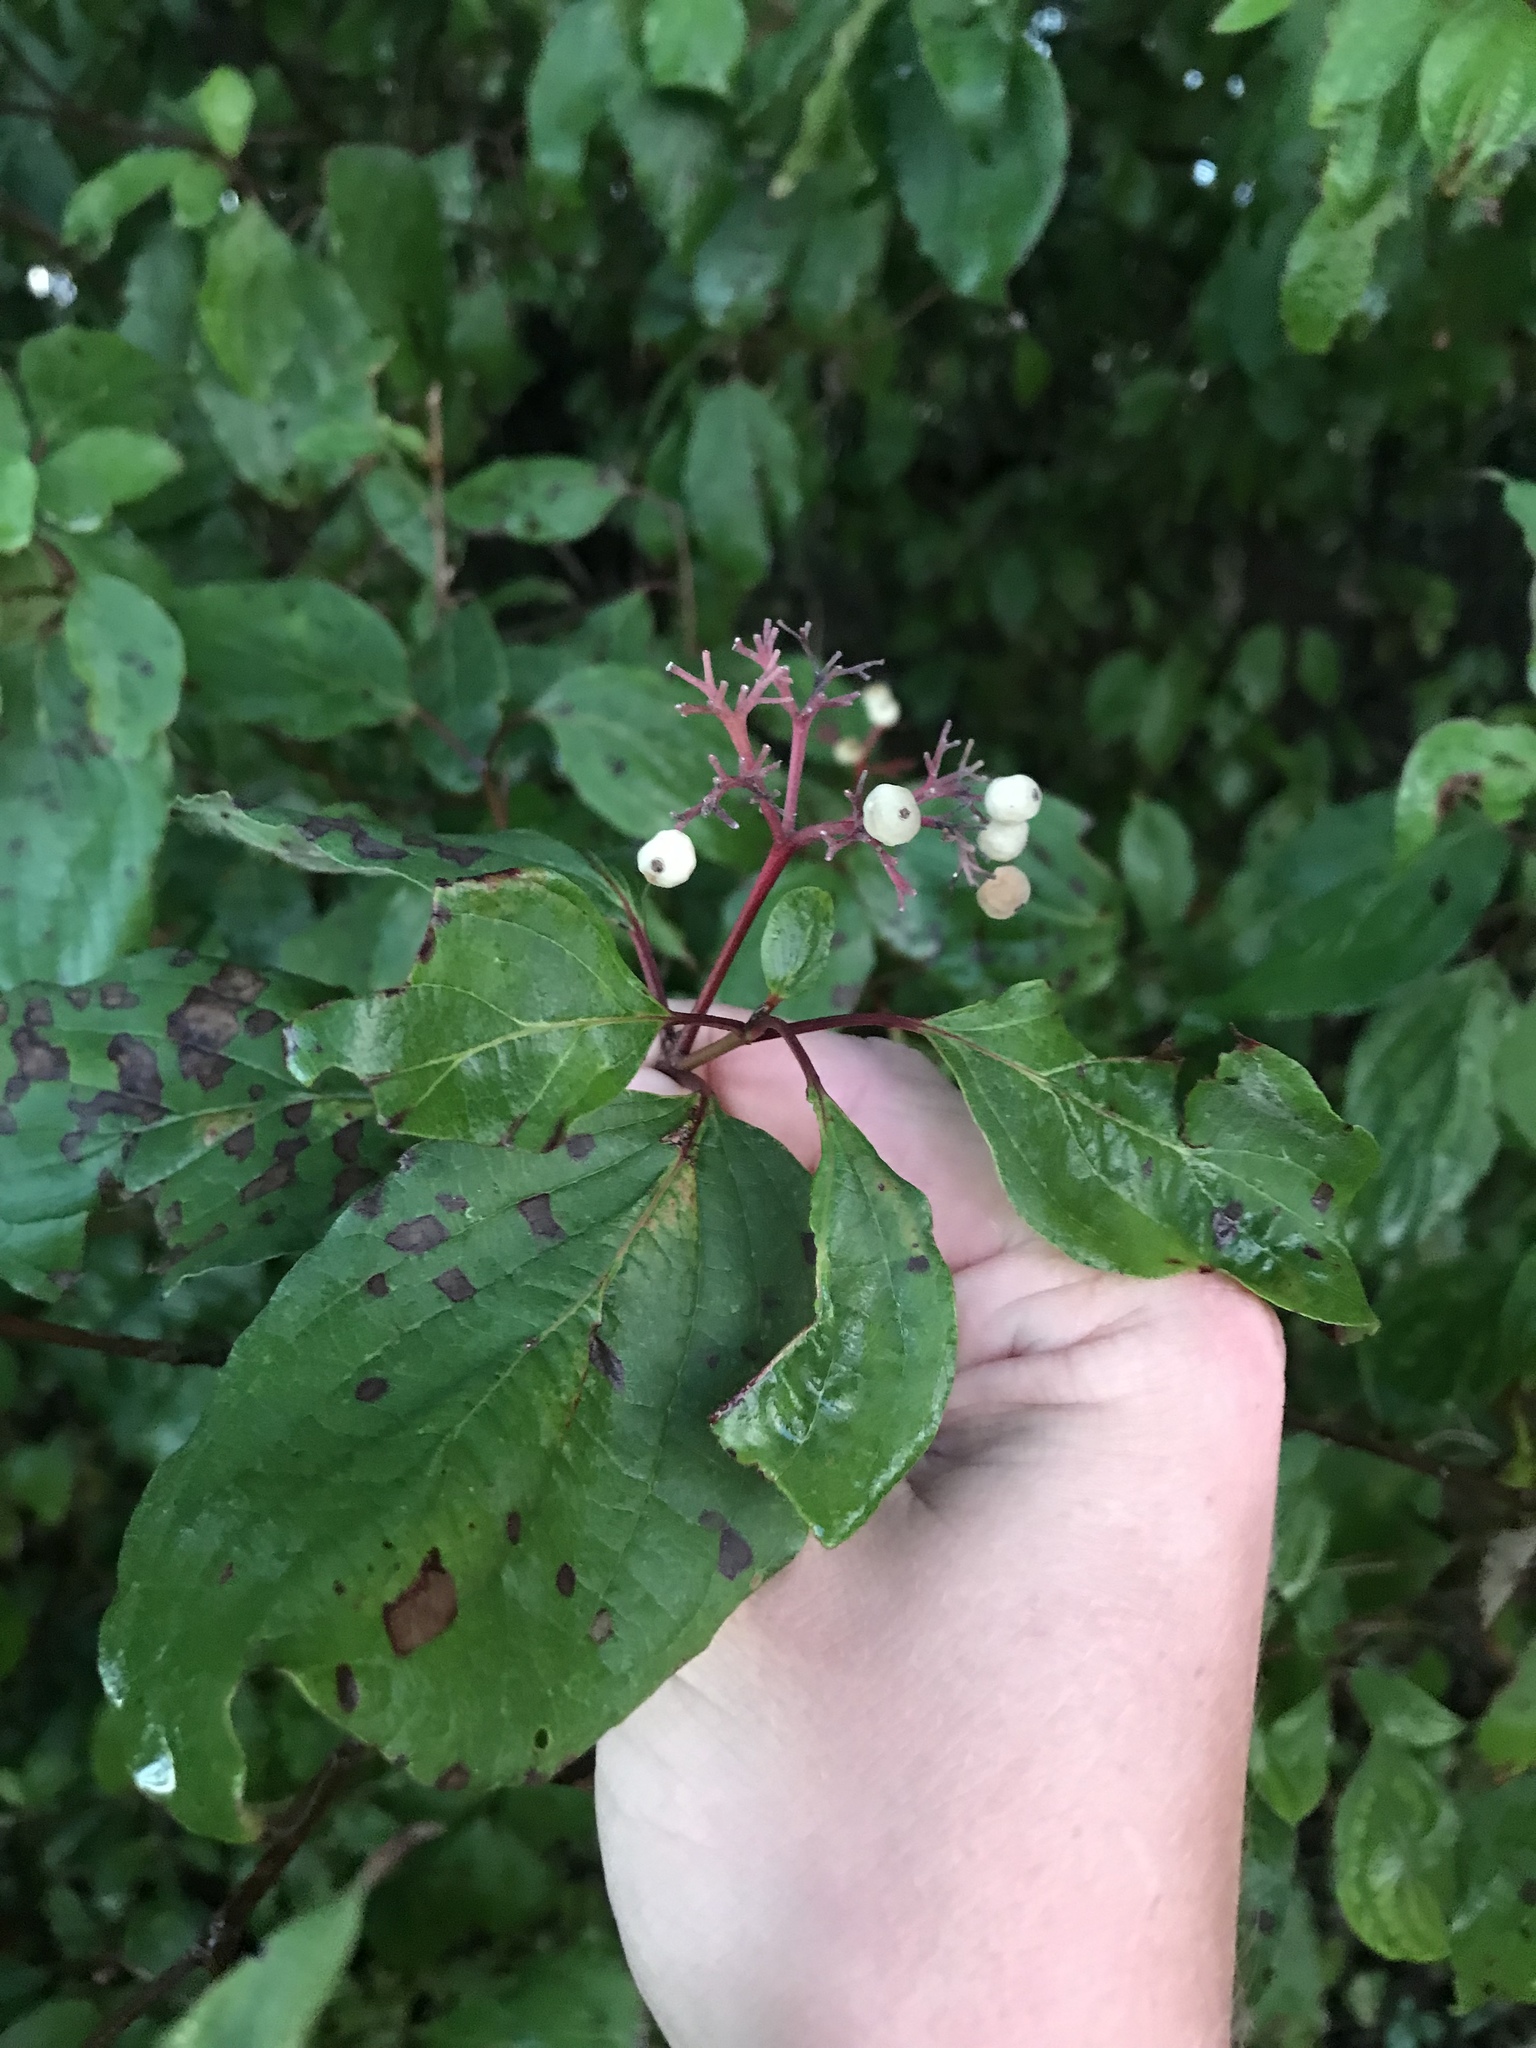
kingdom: Plantae
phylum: Tracheophyta
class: Magnoliopsida
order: Cornales
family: Cornaceae
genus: Cornus
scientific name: Cornus drummondii
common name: Rough-leaf dogwood
